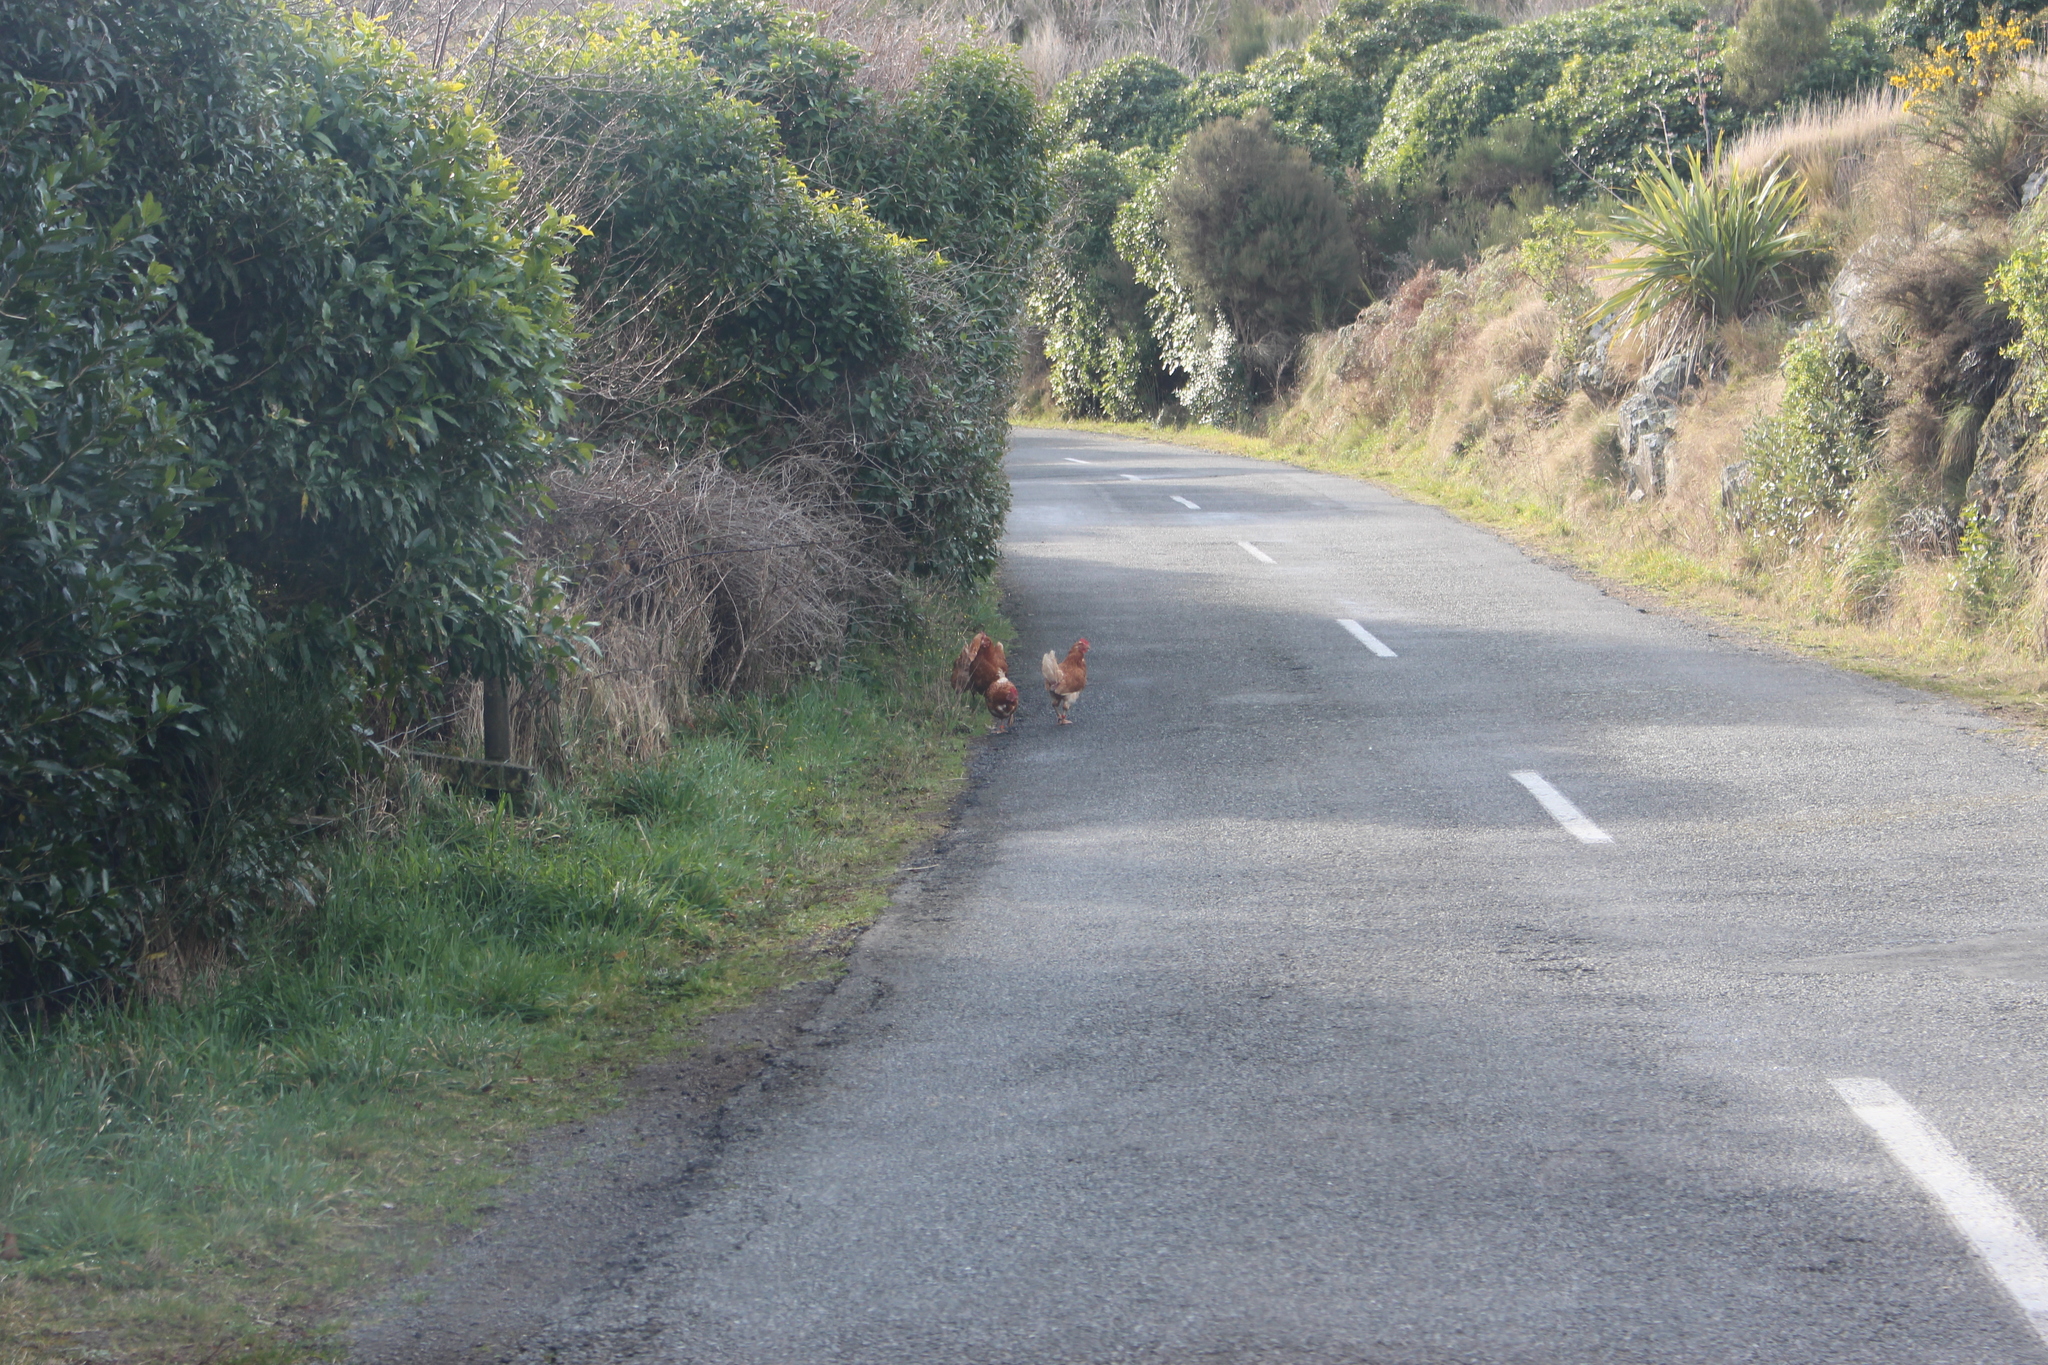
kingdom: Animalia
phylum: Chordata
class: Aves
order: Galliformes
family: Phasianidae
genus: Gallus
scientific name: Gallus gallus
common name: Red junglefowl
